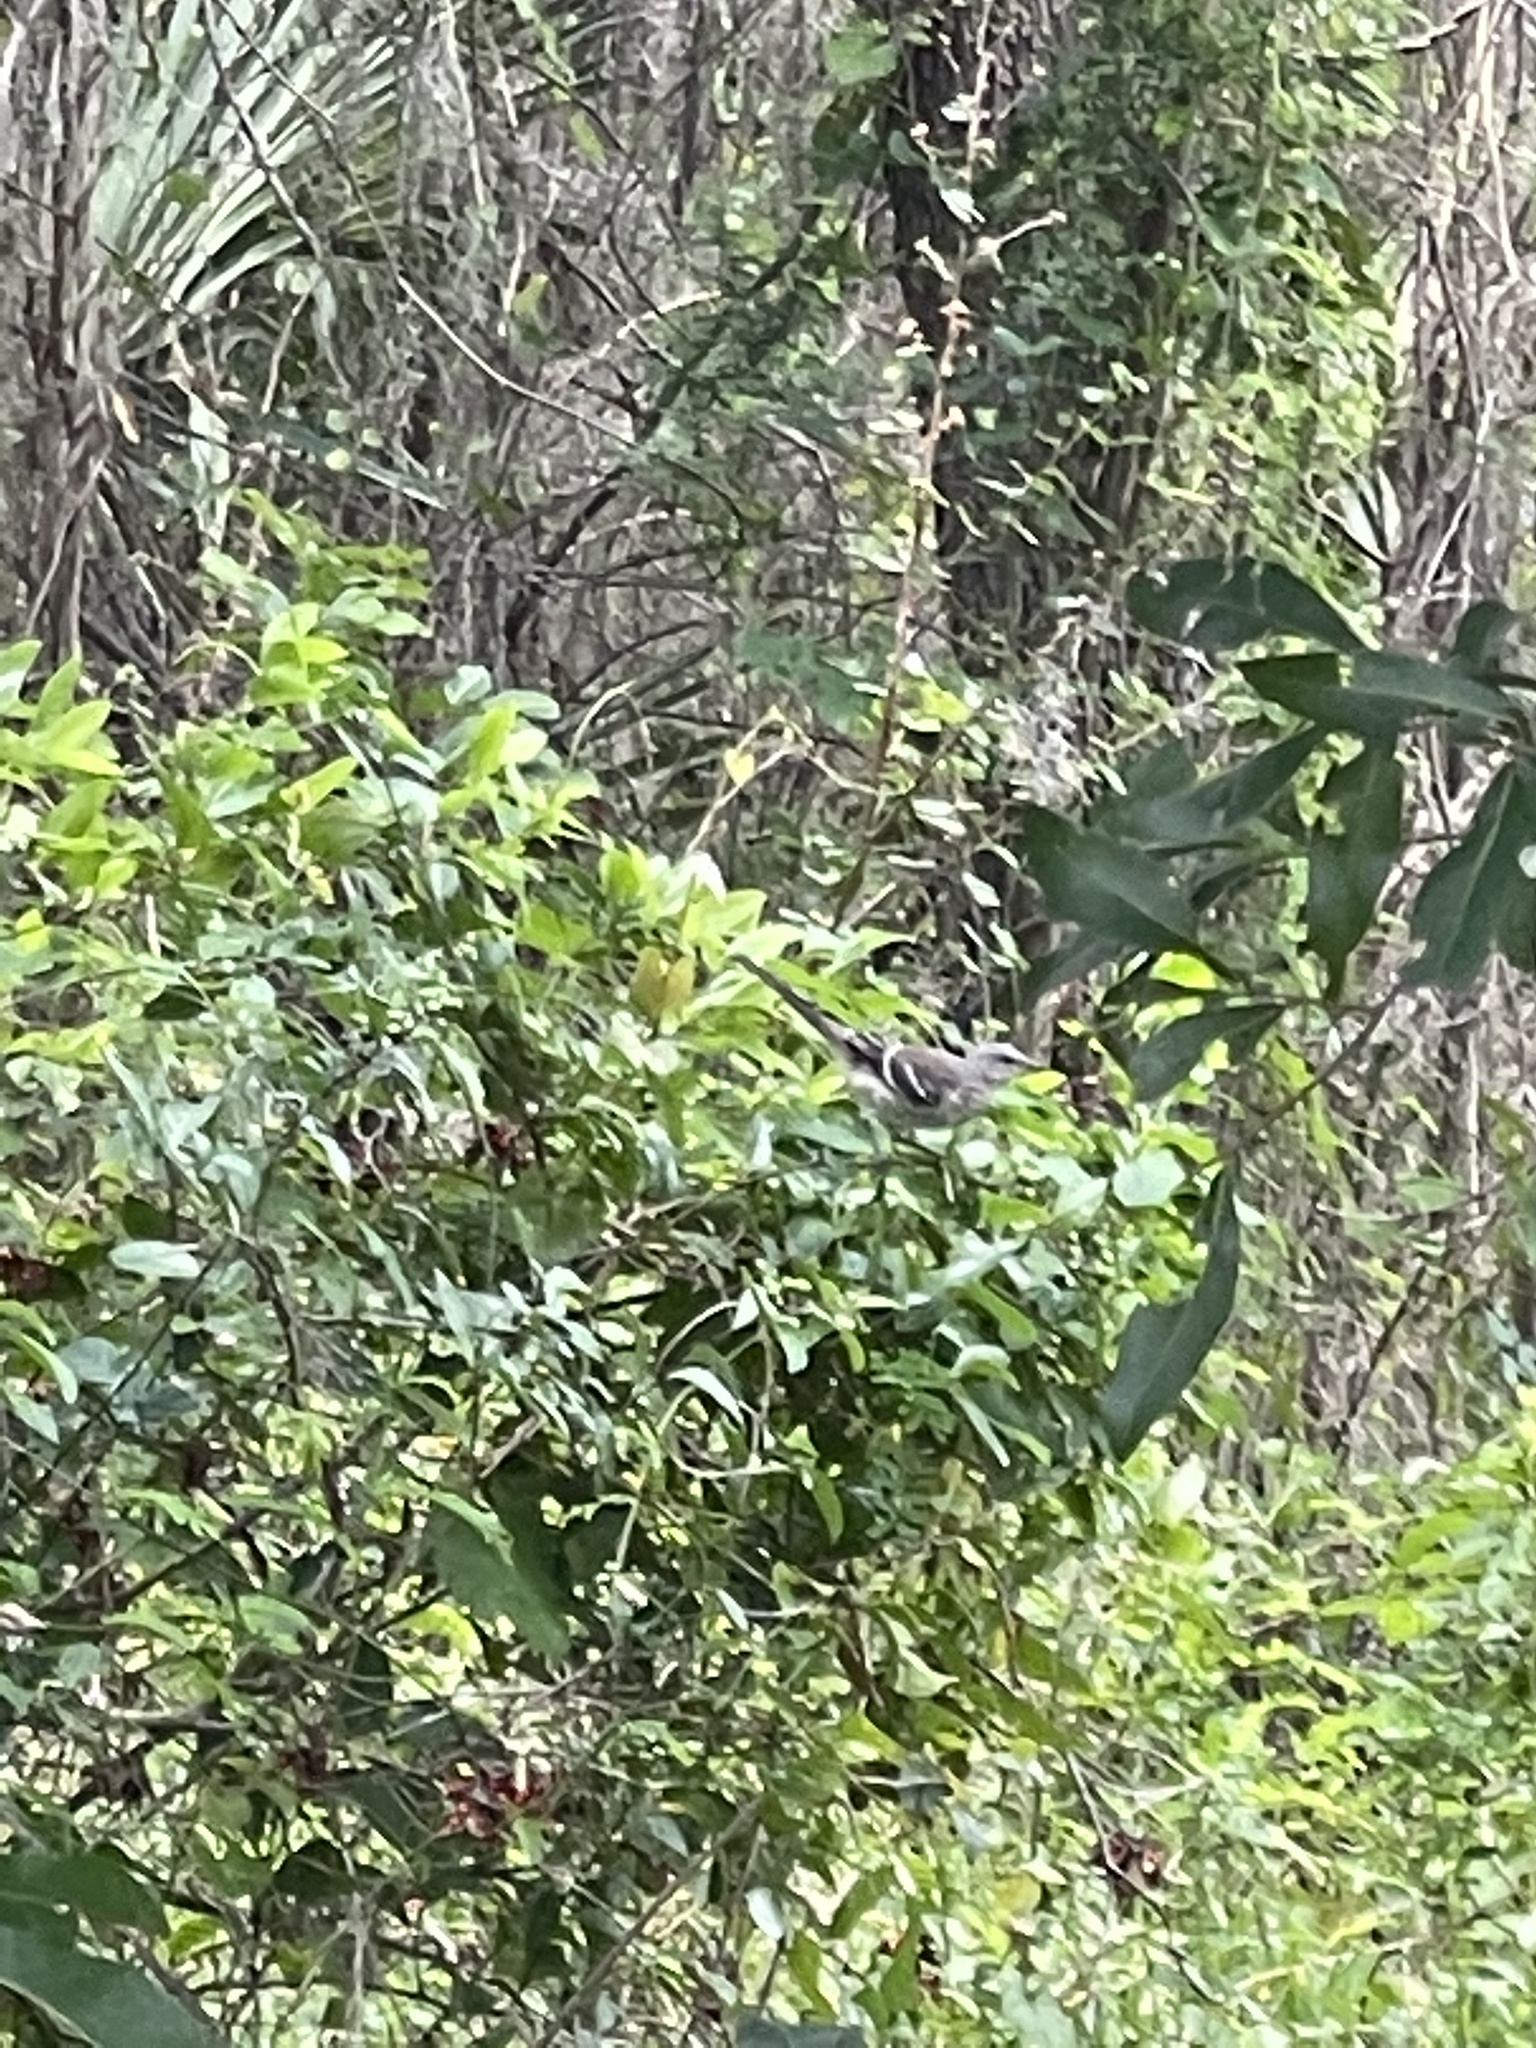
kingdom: Animalia
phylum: Chordata
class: Aves
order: Passeriformes
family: Mimidae
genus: Mimus
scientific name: Mimus polyglottos
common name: Northern mockingbird
